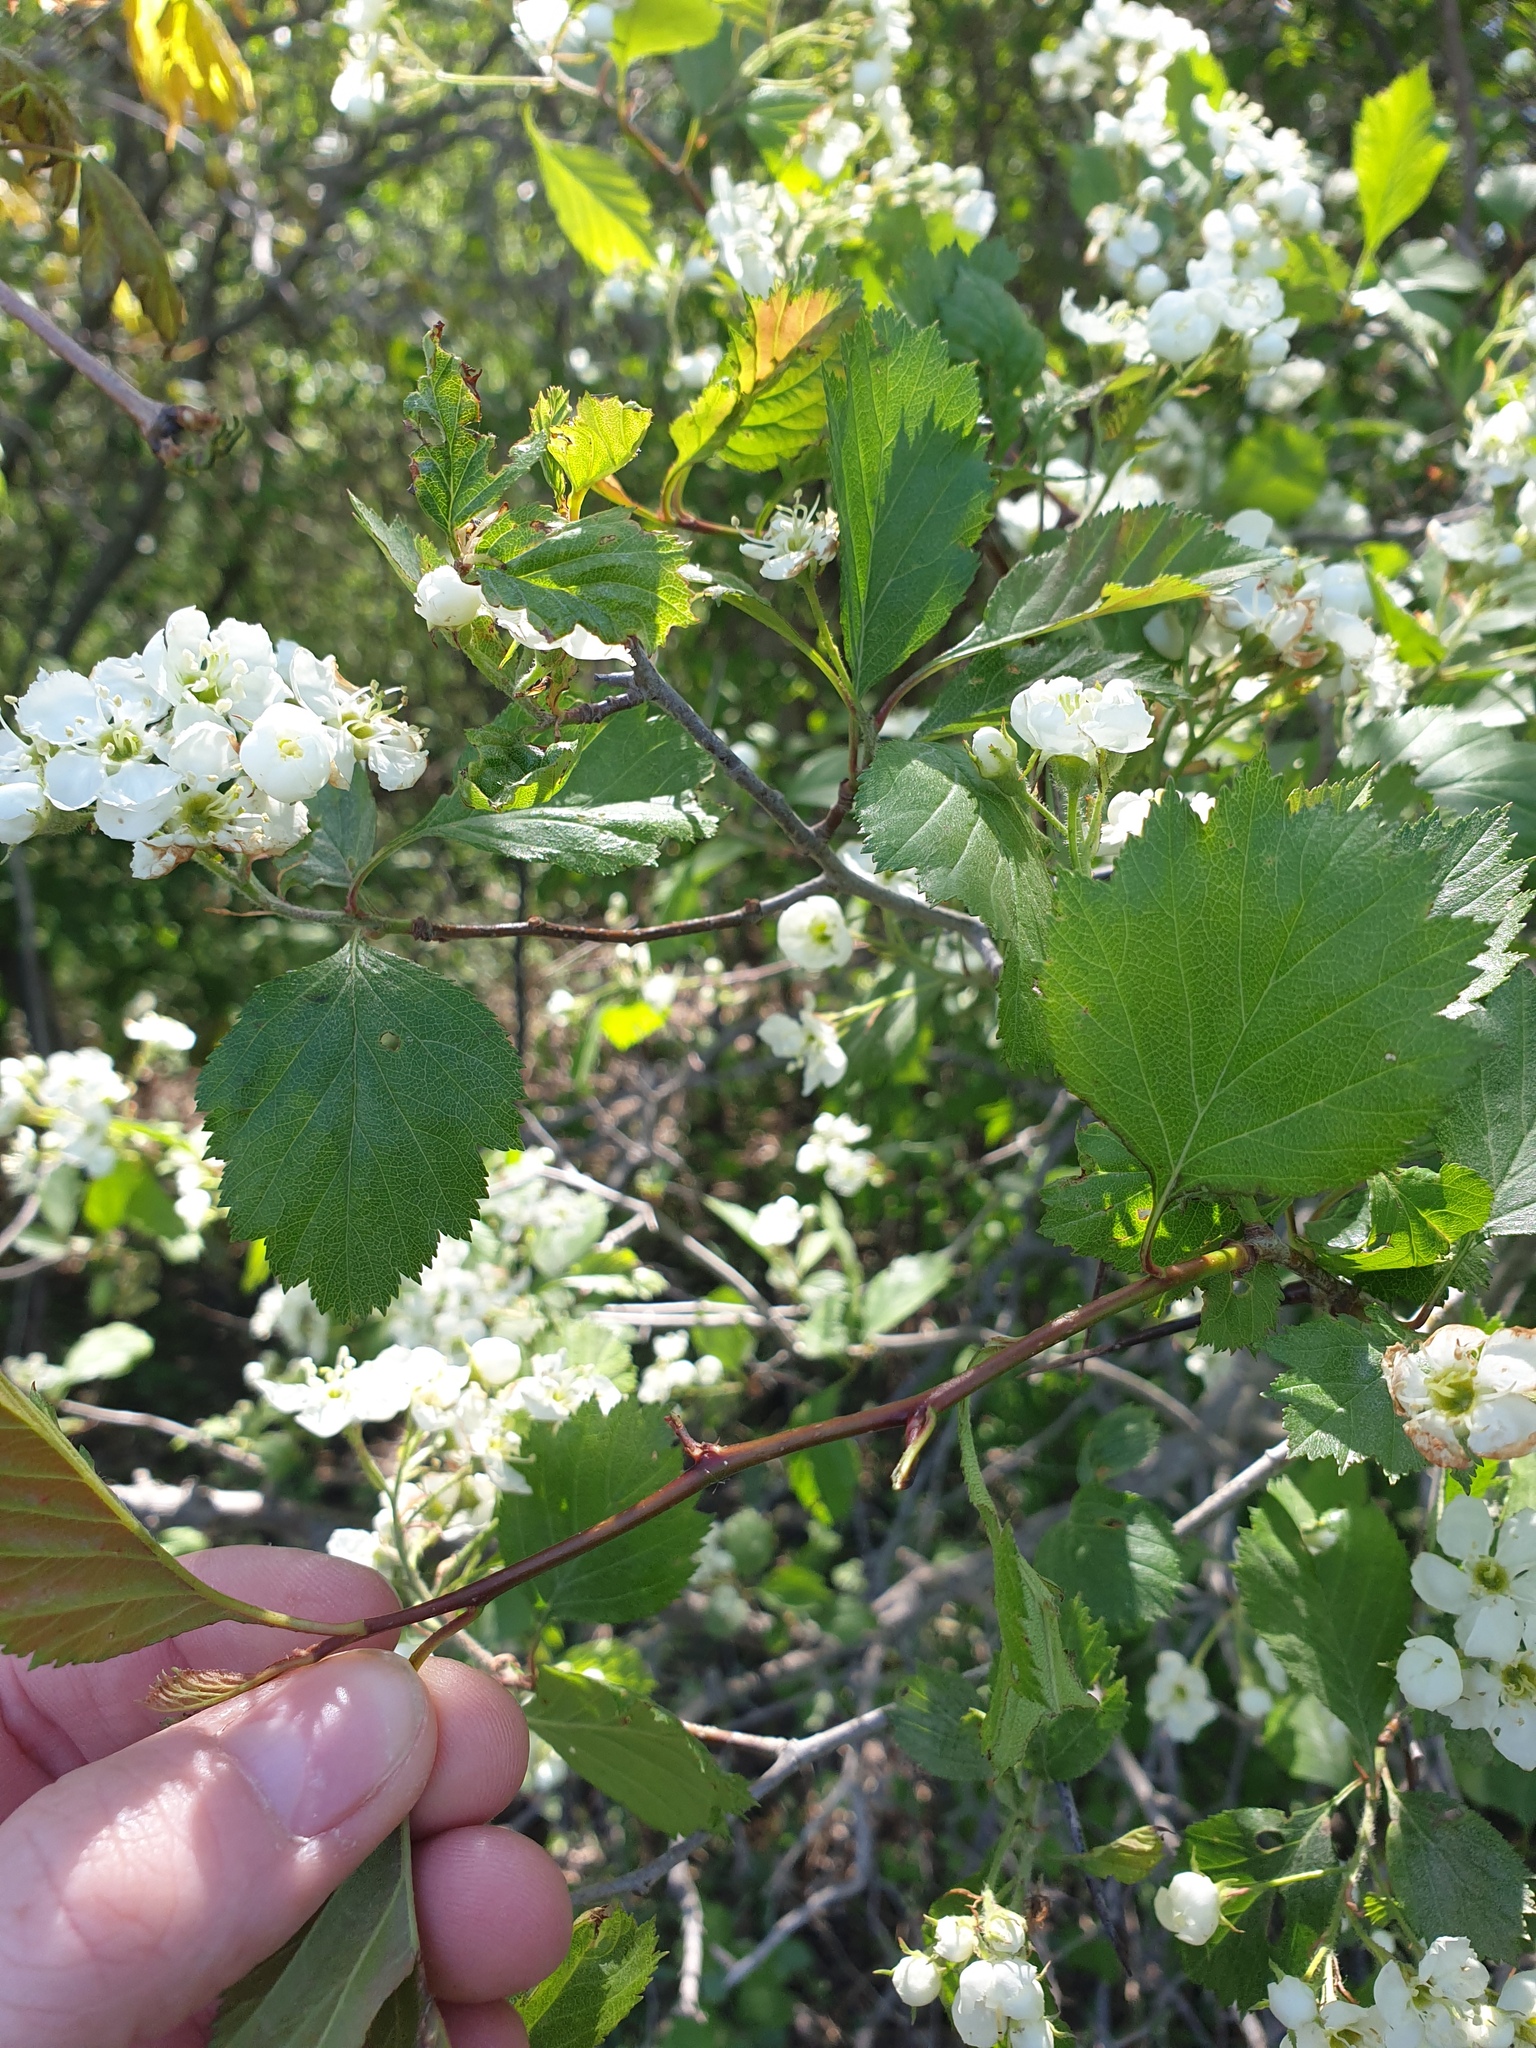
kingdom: Plantae
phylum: Tracheophyta
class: Magnoliopsida
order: Rosales
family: Rosaceae
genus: Crataegus
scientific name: Crataegus chrysocarpa
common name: Fire-berry hawthorn
